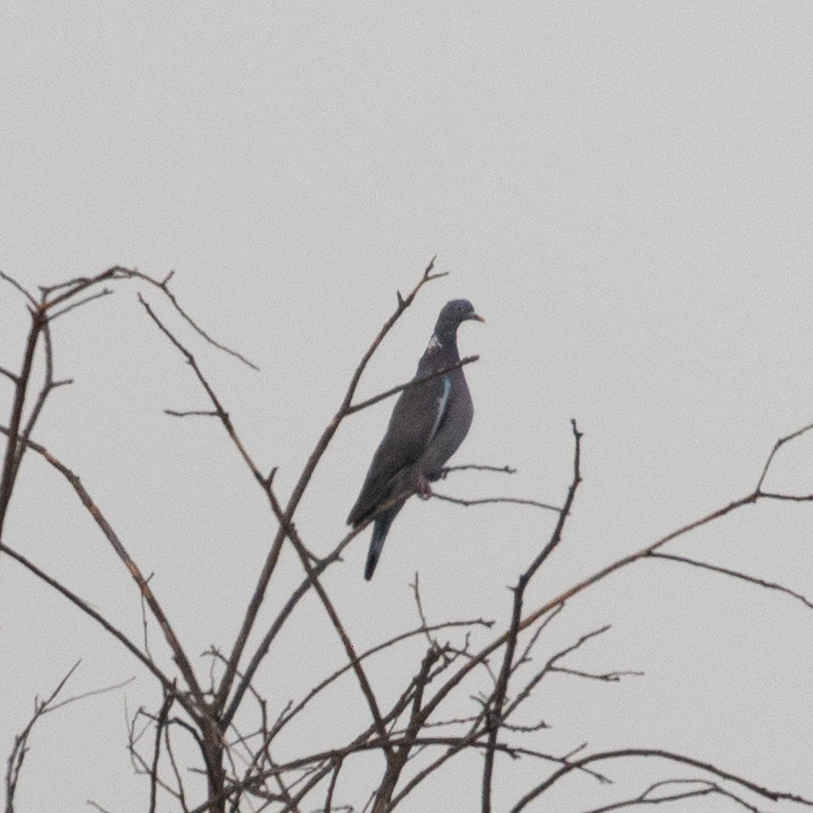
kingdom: Animalia
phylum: Chordata
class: Aves
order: Columbiformes
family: Columbidae
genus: Columba
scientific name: Columba palumbus
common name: Common wood pigeon
